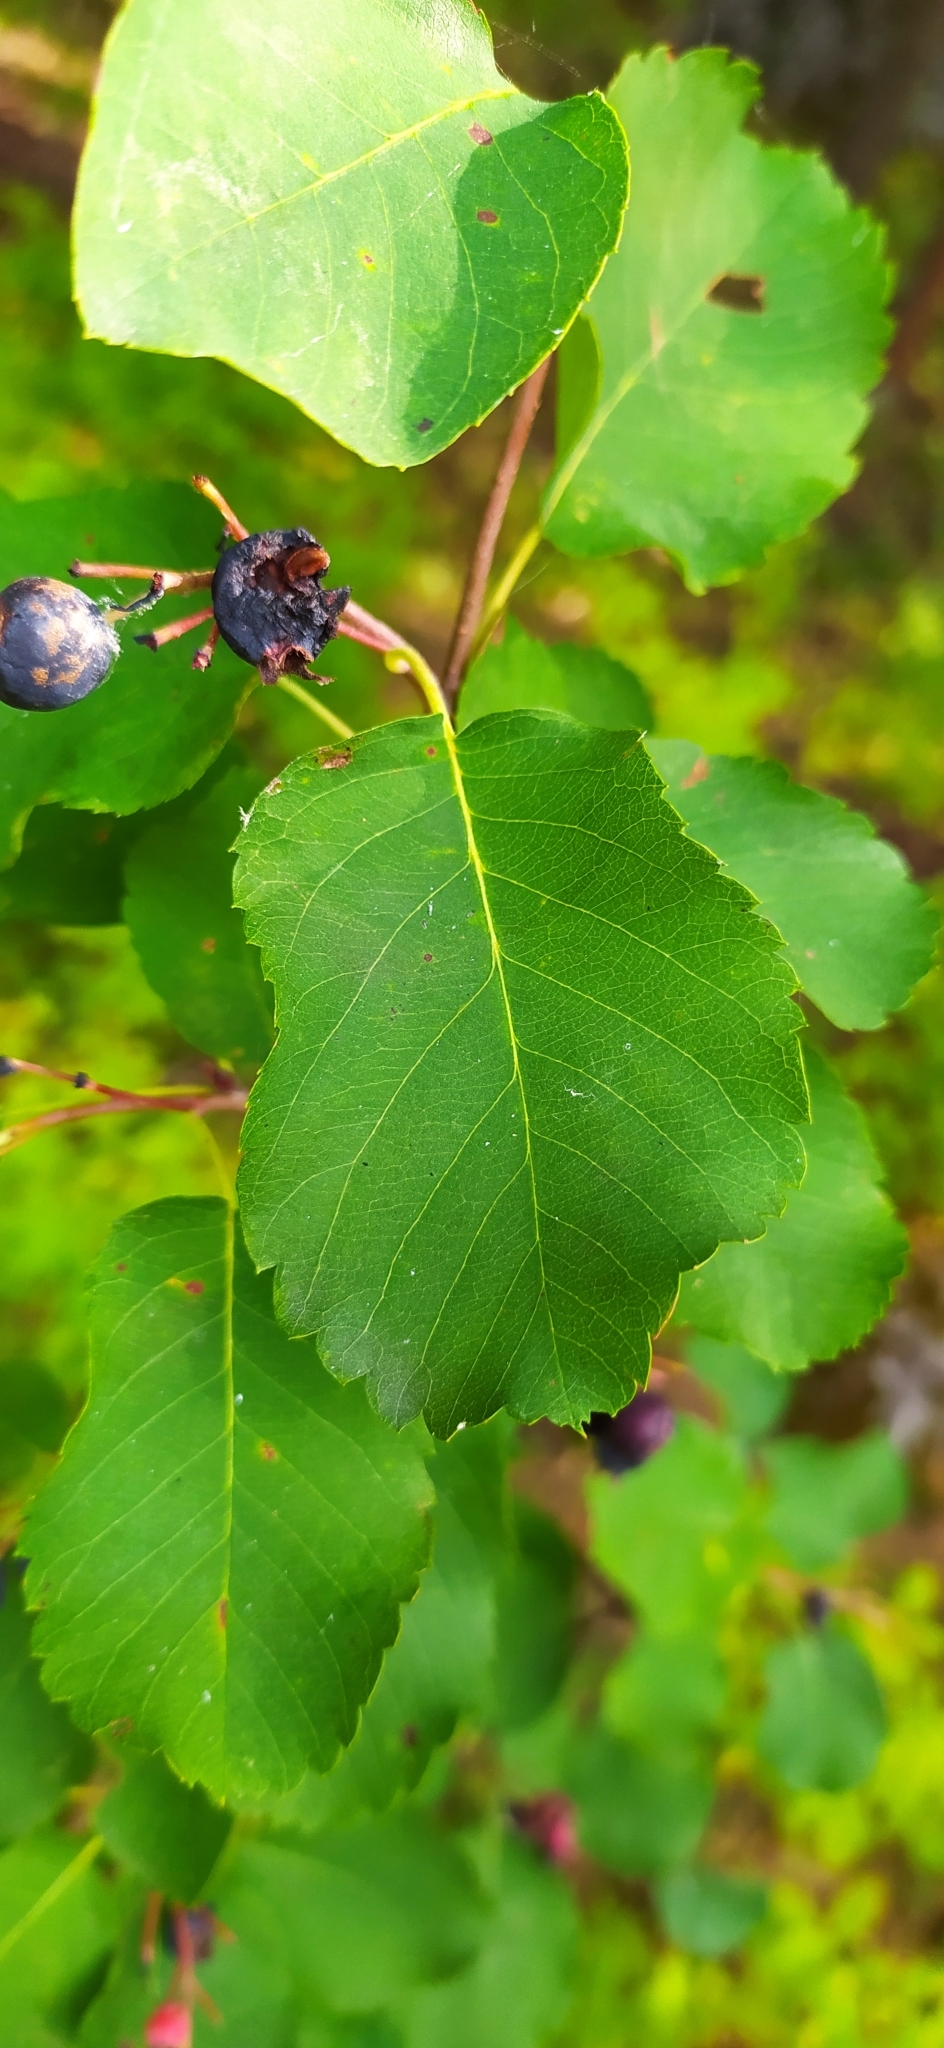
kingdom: Plantae
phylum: Tracheophyta
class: Magnoliopsida
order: Rosales
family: Rosaceae
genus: Amelanchier
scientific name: Amelanchier alnifolia
